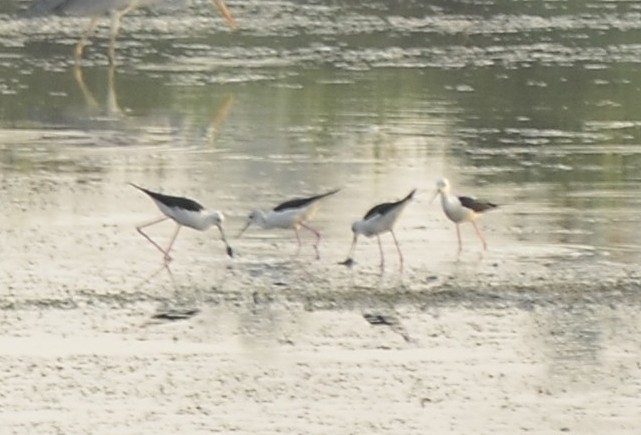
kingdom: Animalia
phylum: Chordata
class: Aves
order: Charadriiformes
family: Recurvirostridae
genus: Himantopus
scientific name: Himantopus himantopus
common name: Black-winged stilt
